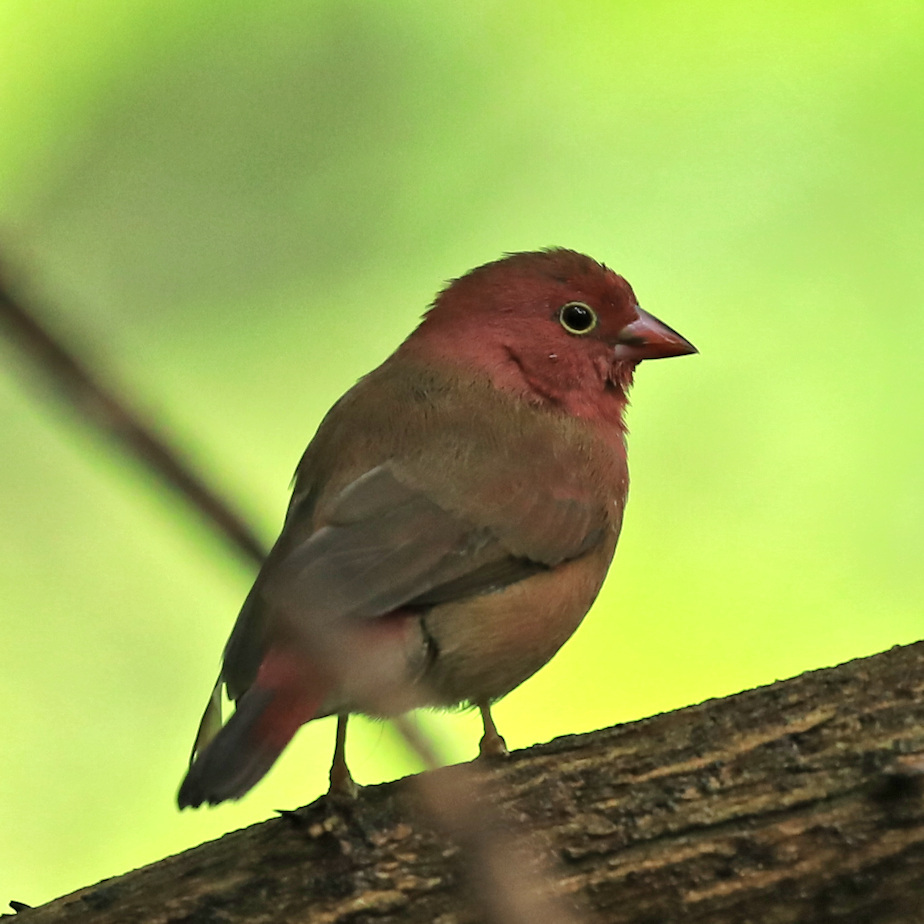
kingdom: Animalia
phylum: Chordata
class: Aves
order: Passeriformes
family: Estrildidae
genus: Lagonosticta
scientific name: Lagonosticta senegala
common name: Red-billed firefinch
